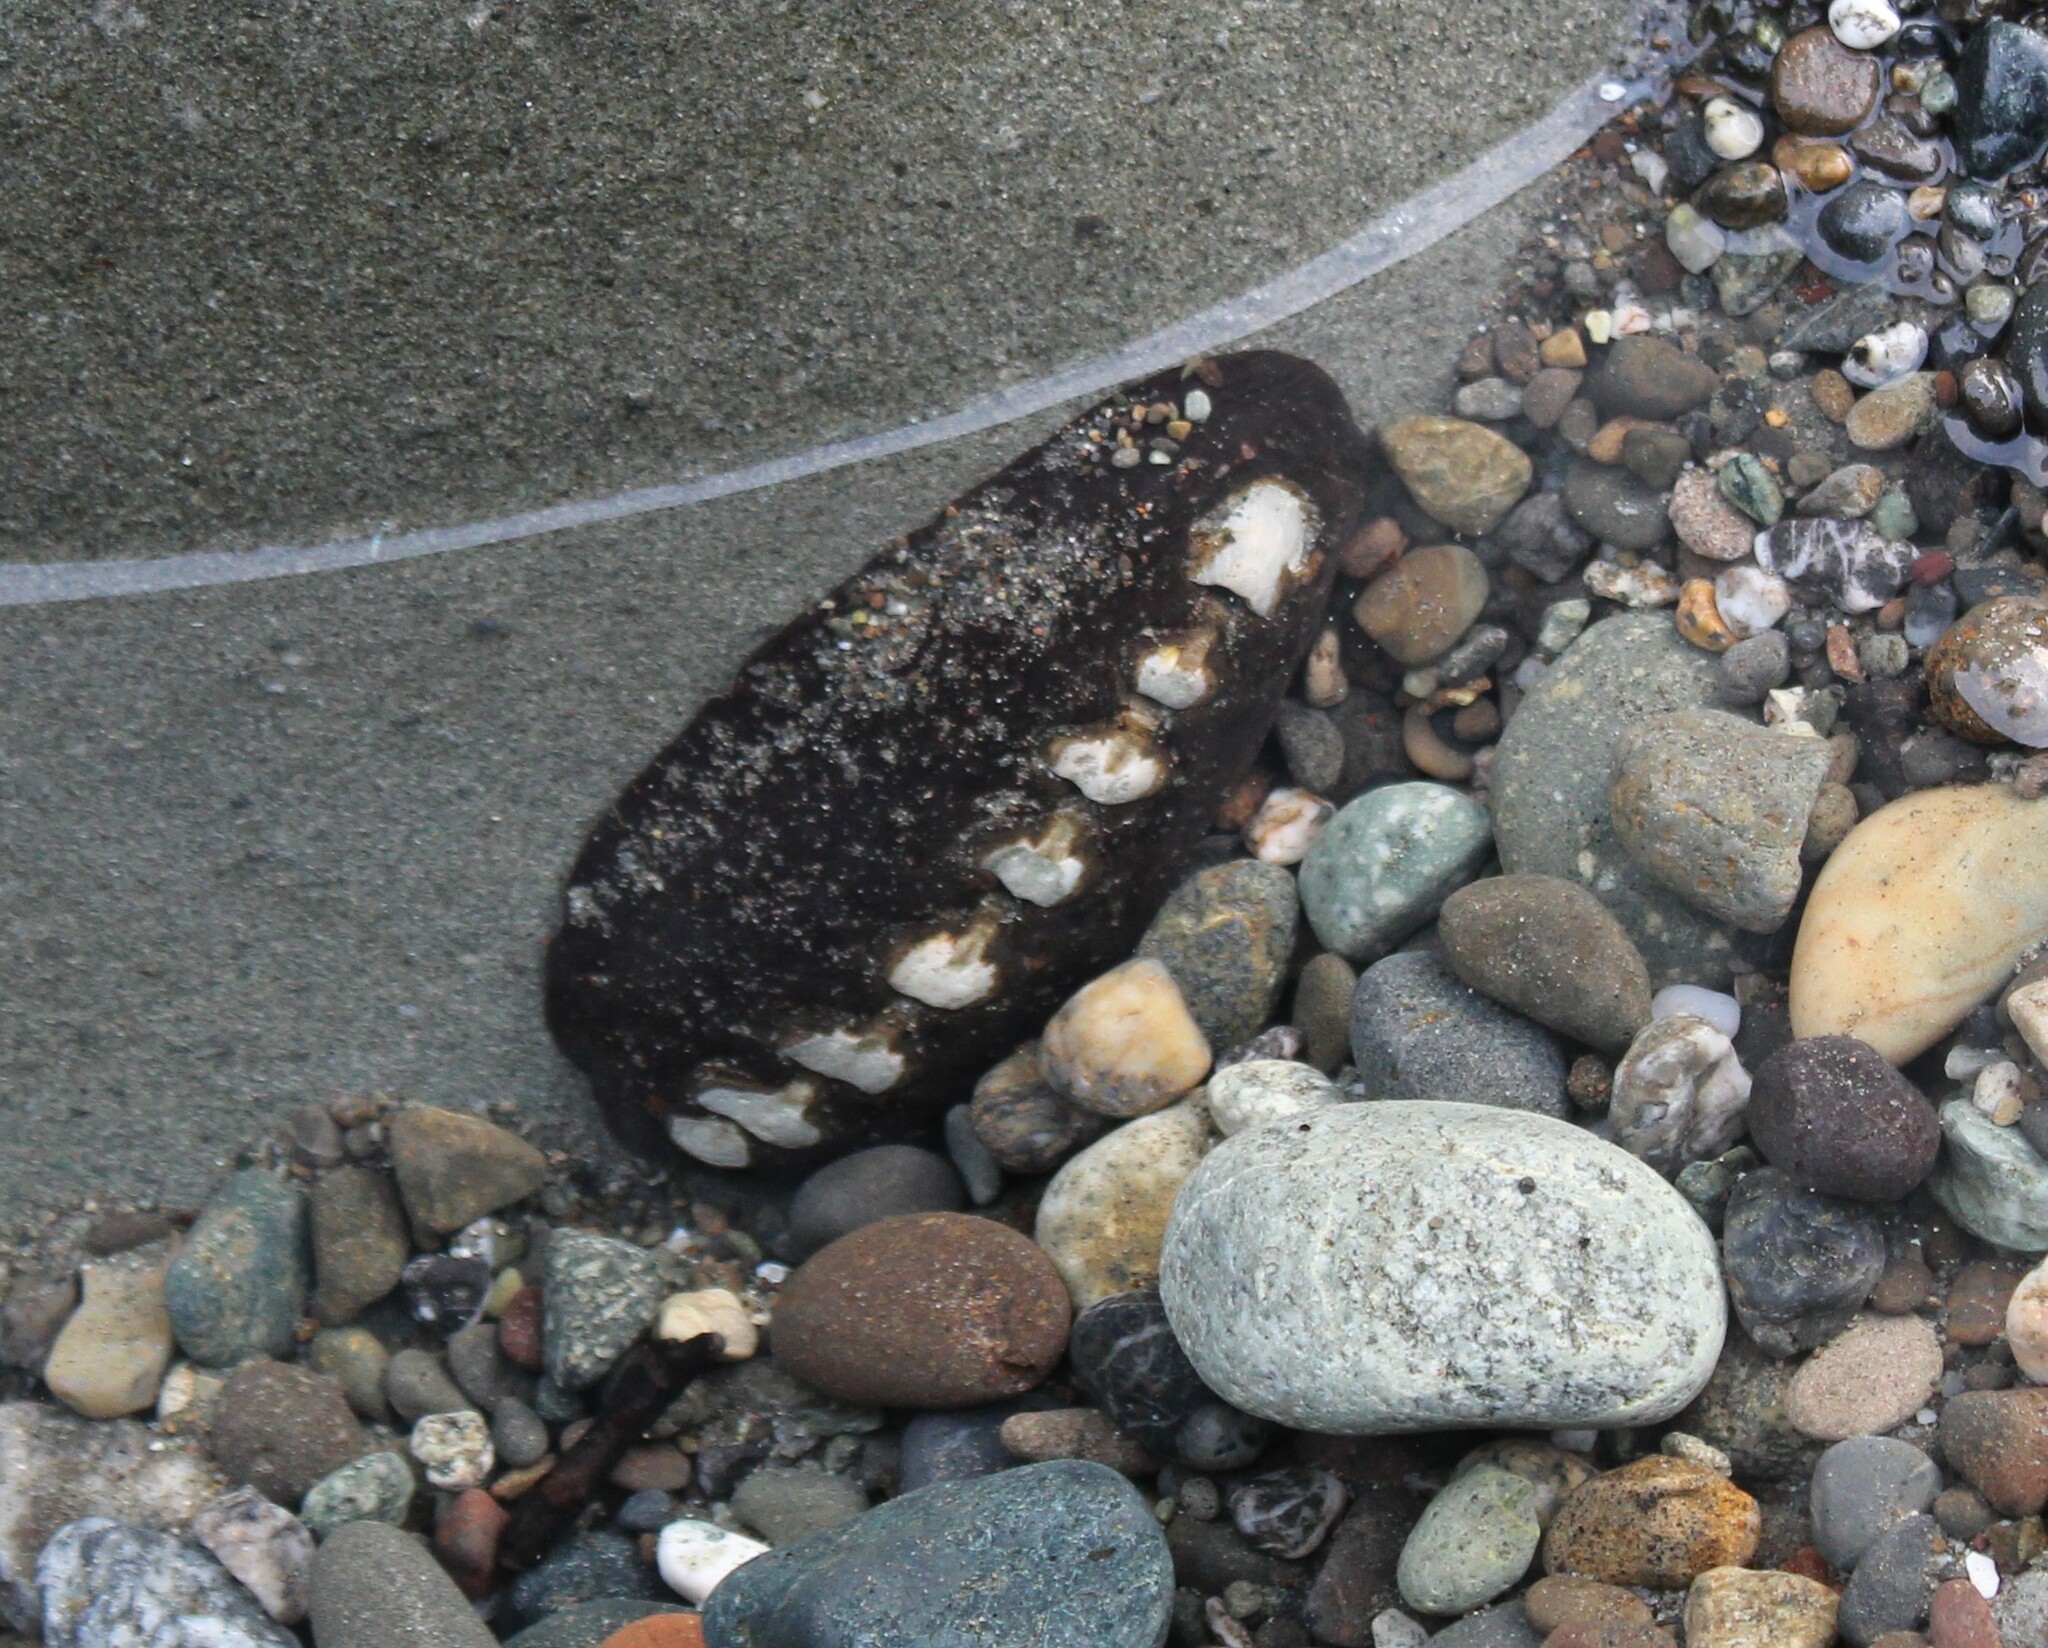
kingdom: Animalia
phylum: Mollusca
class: Polyplacophora
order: Chitonida
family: Mopaliidae
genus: Katharina
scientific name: Katharina tunicata
